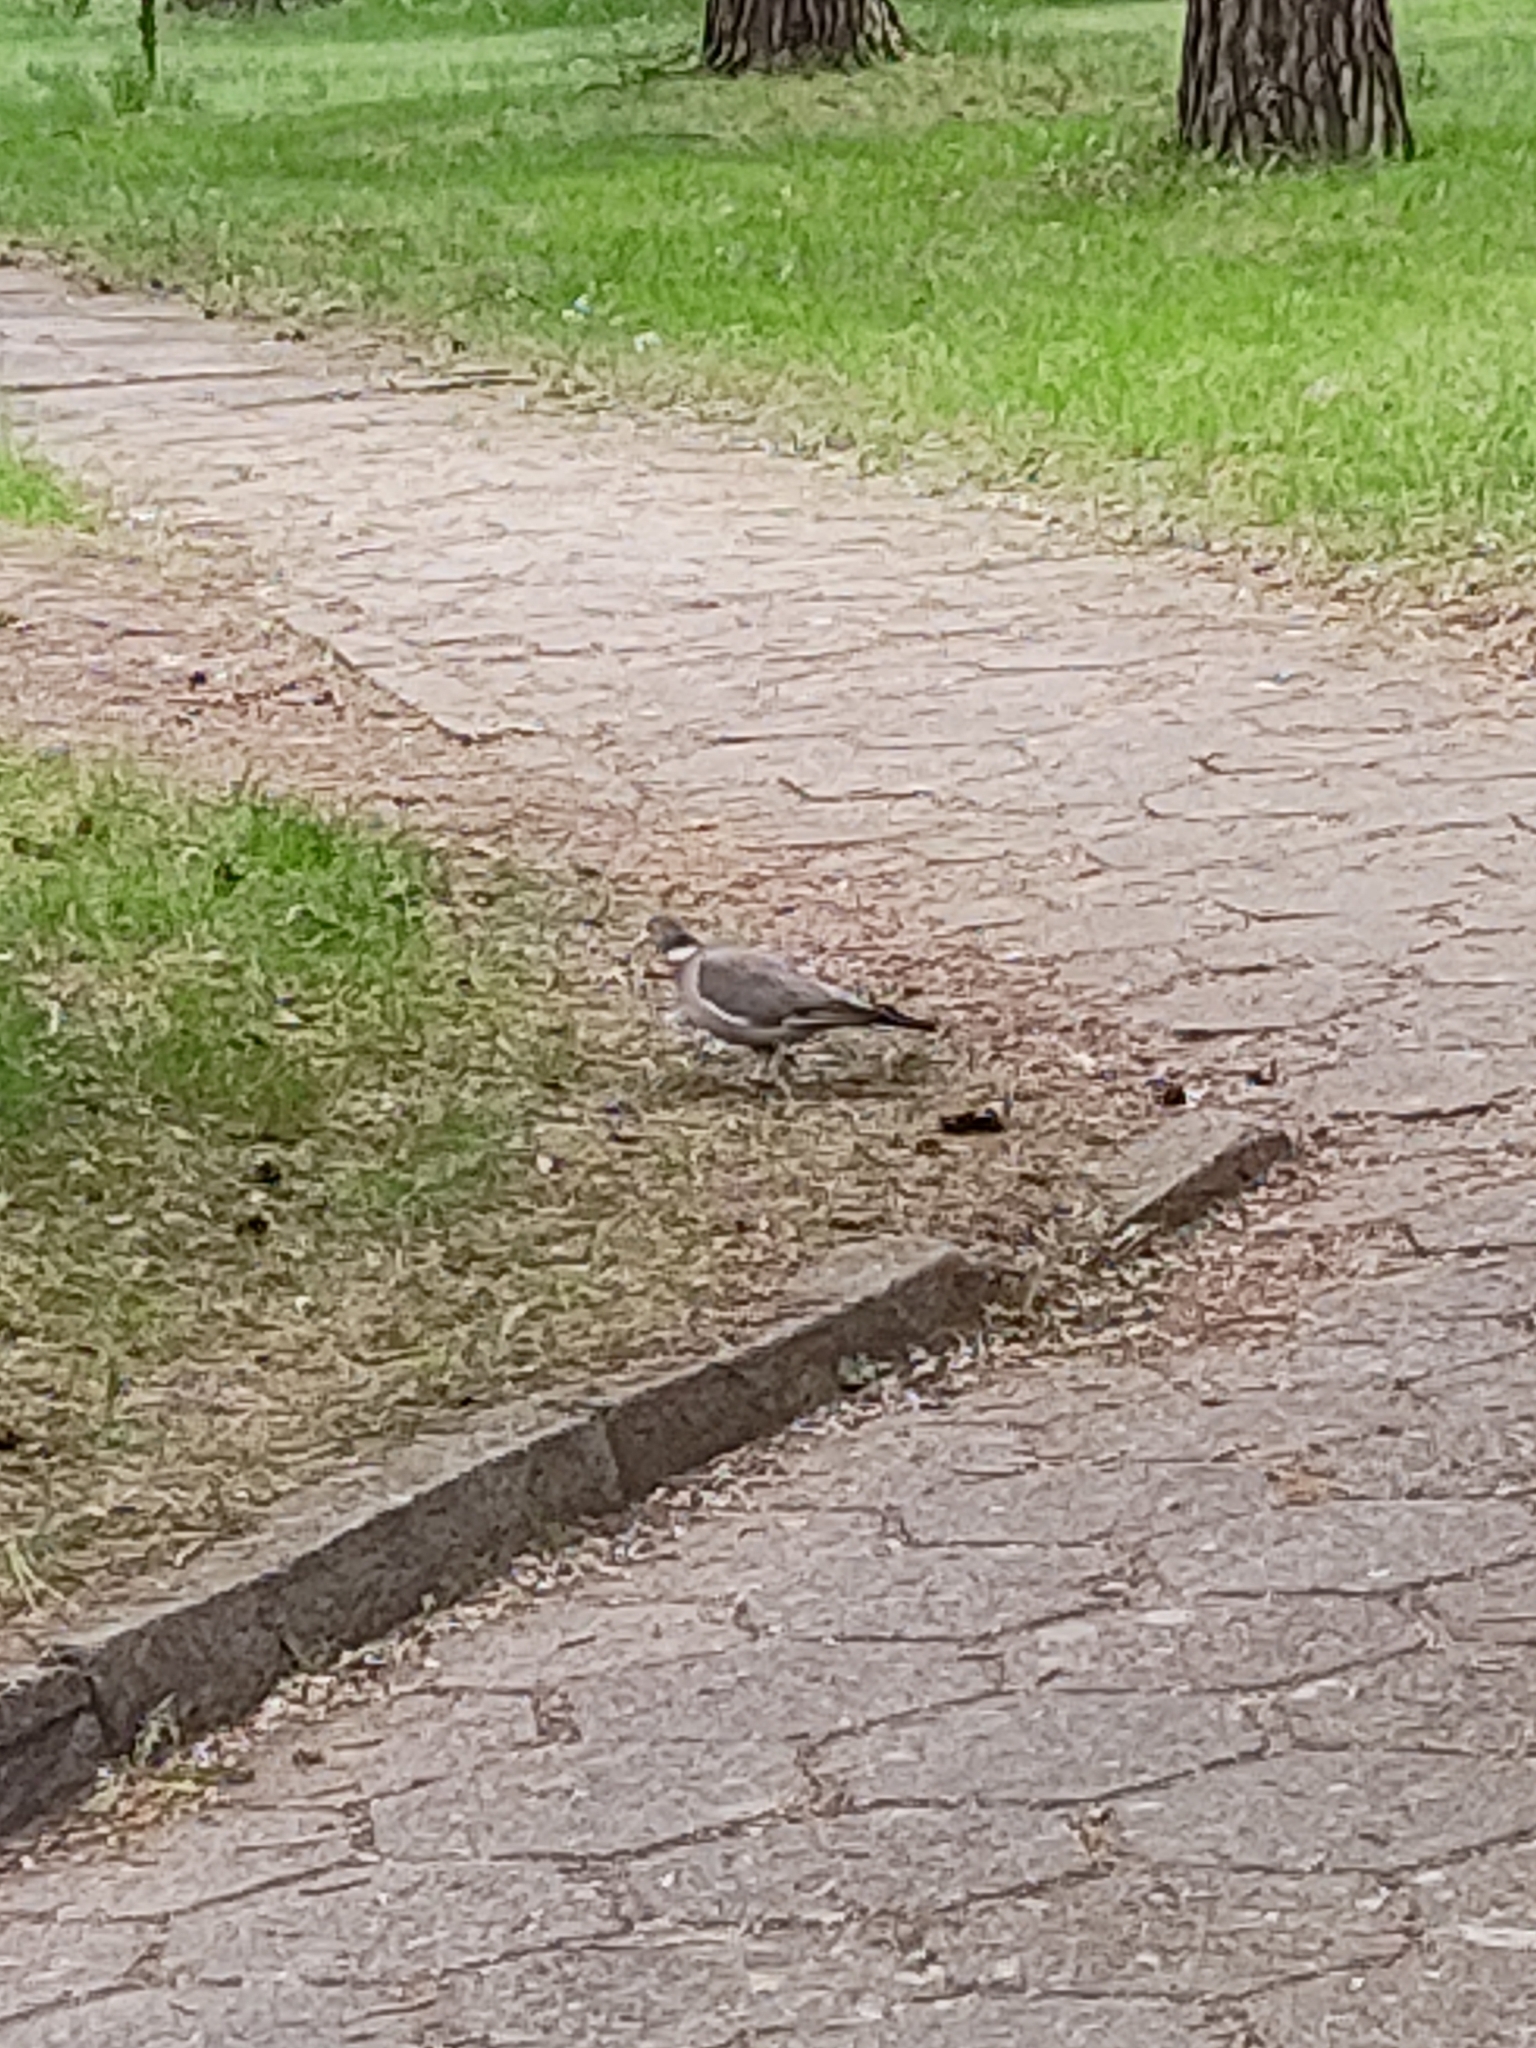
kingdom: Animalia
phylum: Chordata
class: Aves
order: Columbiformes
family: Columbidae
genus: Columba
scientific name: Columba palumbus
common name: Common wood pigeon
